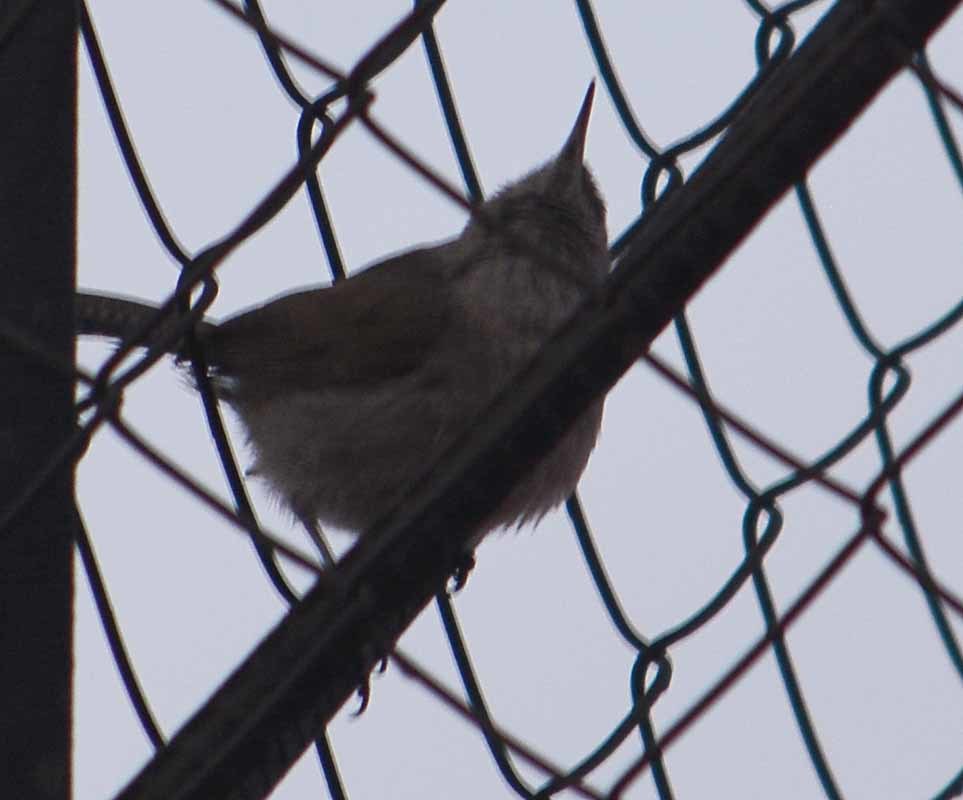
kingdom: Animalia
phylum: Chordata
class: Aves
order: Passeriformes
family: Troglodytidae
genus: Thryomanes
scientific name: Thryomanes bewickii
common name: Bewick's wren
